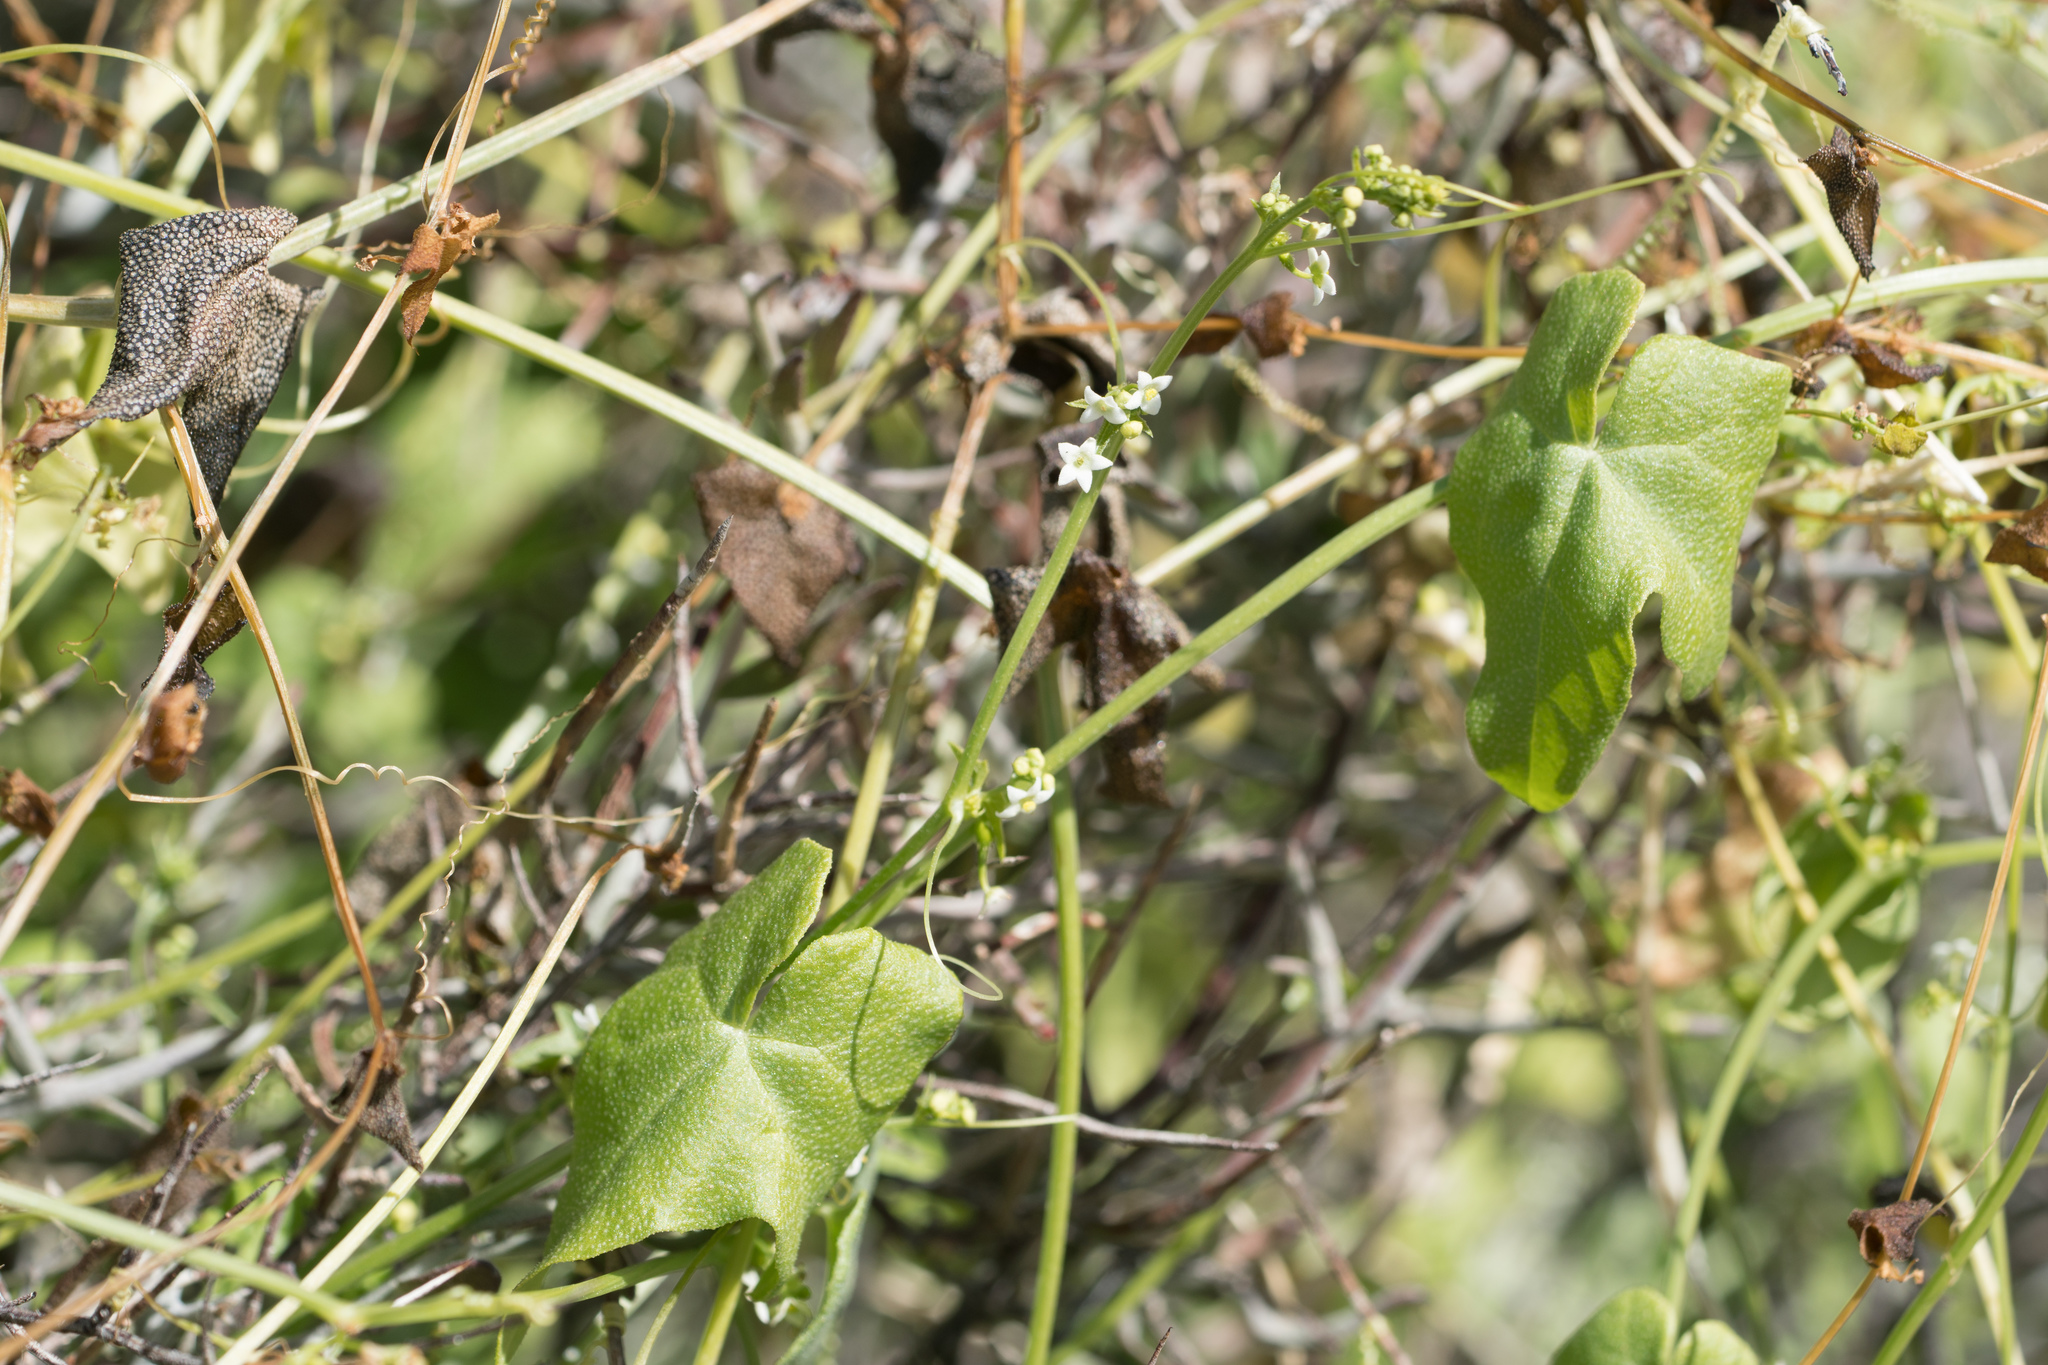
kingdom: Plantae
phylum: Tracheophyta
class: Magnoliopsida
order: Cucurbitales
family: Cucurbitaceae
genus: Echinopepon
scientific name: Echinopepon bigelovii
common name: Desert starvine
